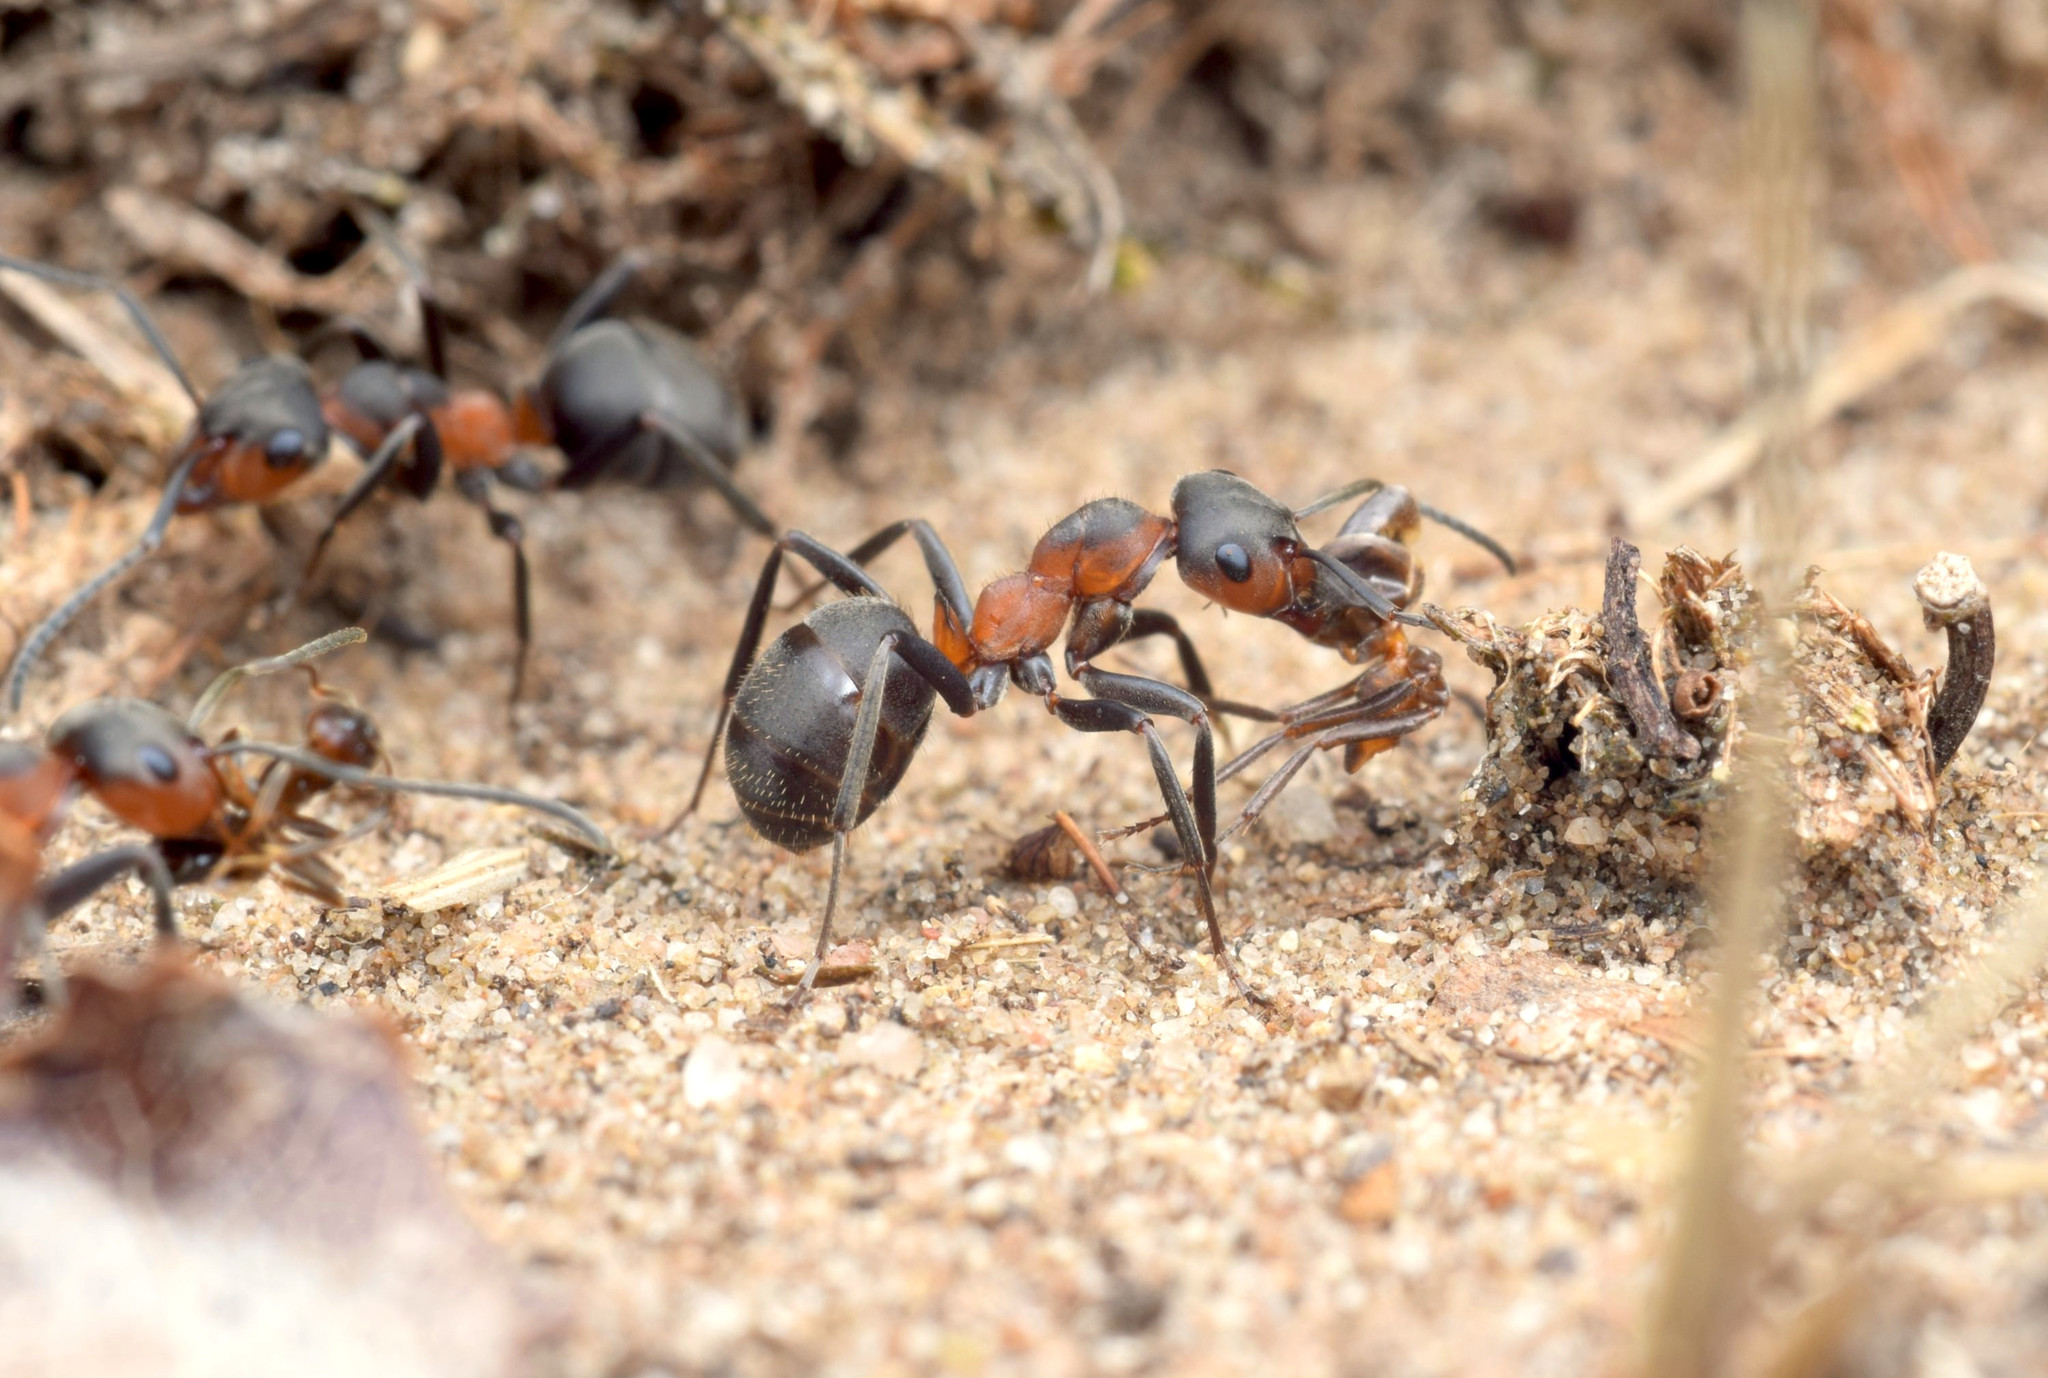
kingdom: Animalia
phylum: Arthropoda
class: Insecta
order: Hymenoptera
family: Formicidae
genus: Formica
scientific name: Formica pratensis
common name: European red wood ant
